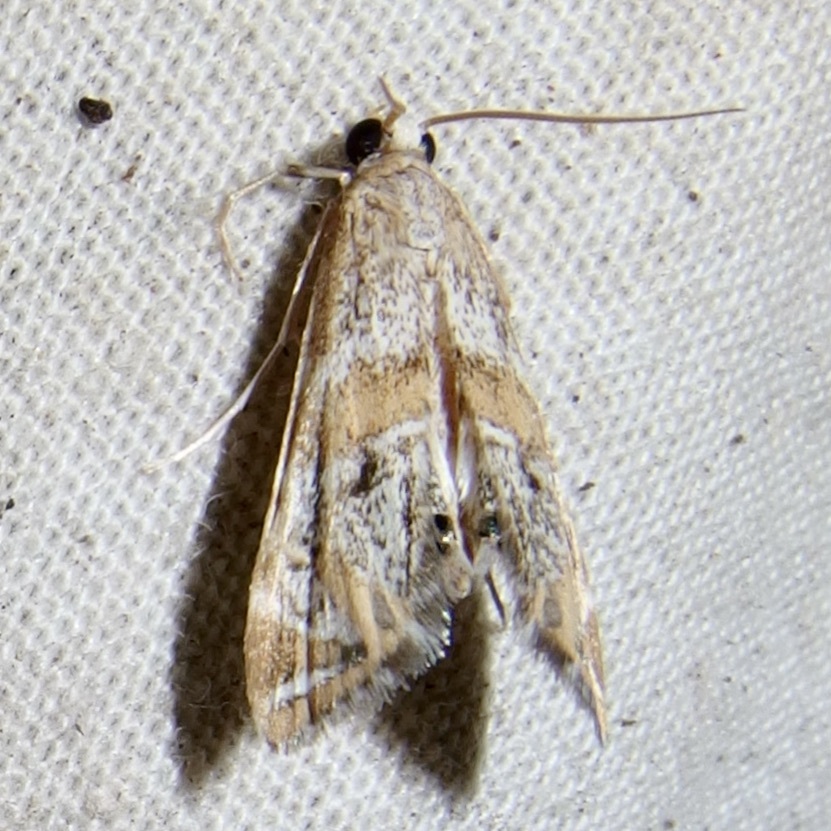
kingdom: Animalia
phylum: Arthropoda
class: Insecta
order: Lepidoptera
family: Crambidae
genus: Petrophila
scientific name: Petrophila jaliscalis
